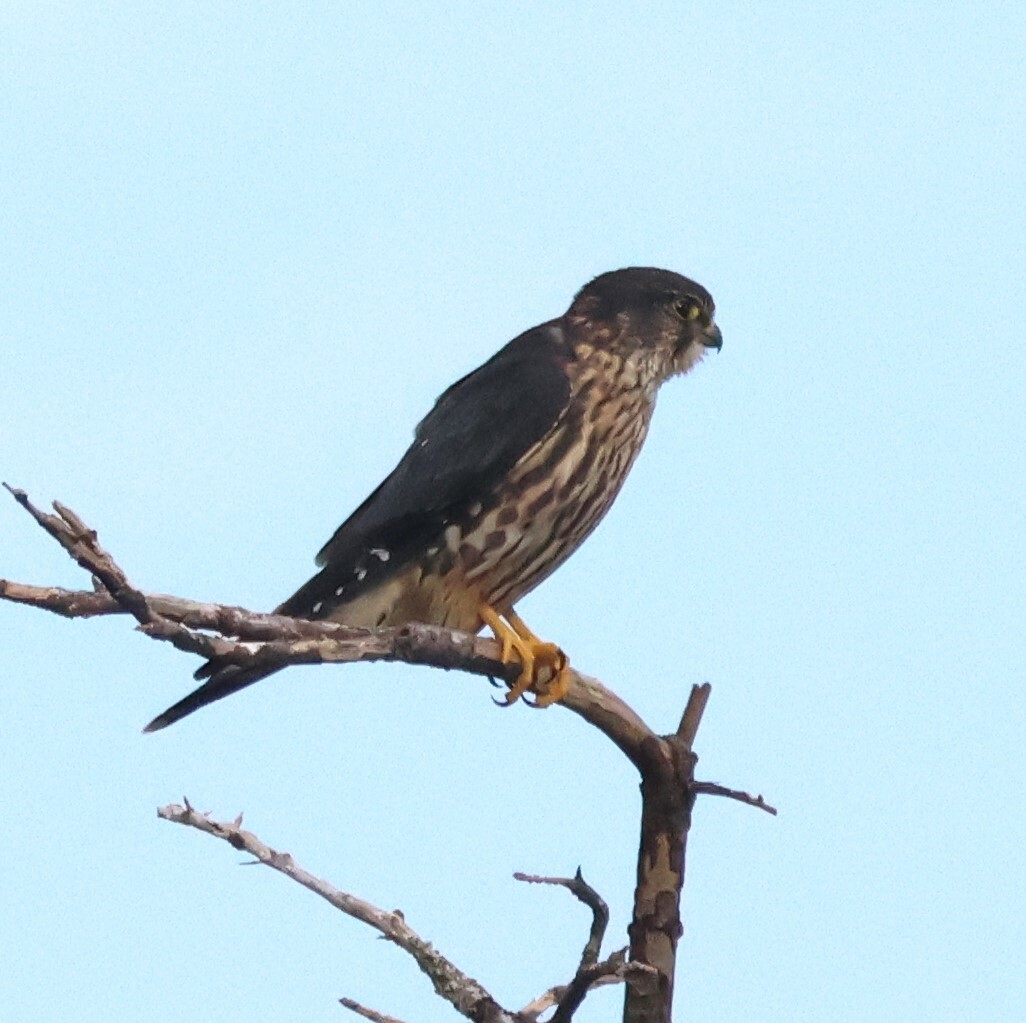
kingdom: Animalia
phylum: Chordata
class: Aves
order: Falconiformes
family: Falconidae
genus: Falco
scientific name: Falco columbarius
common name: Merlin
